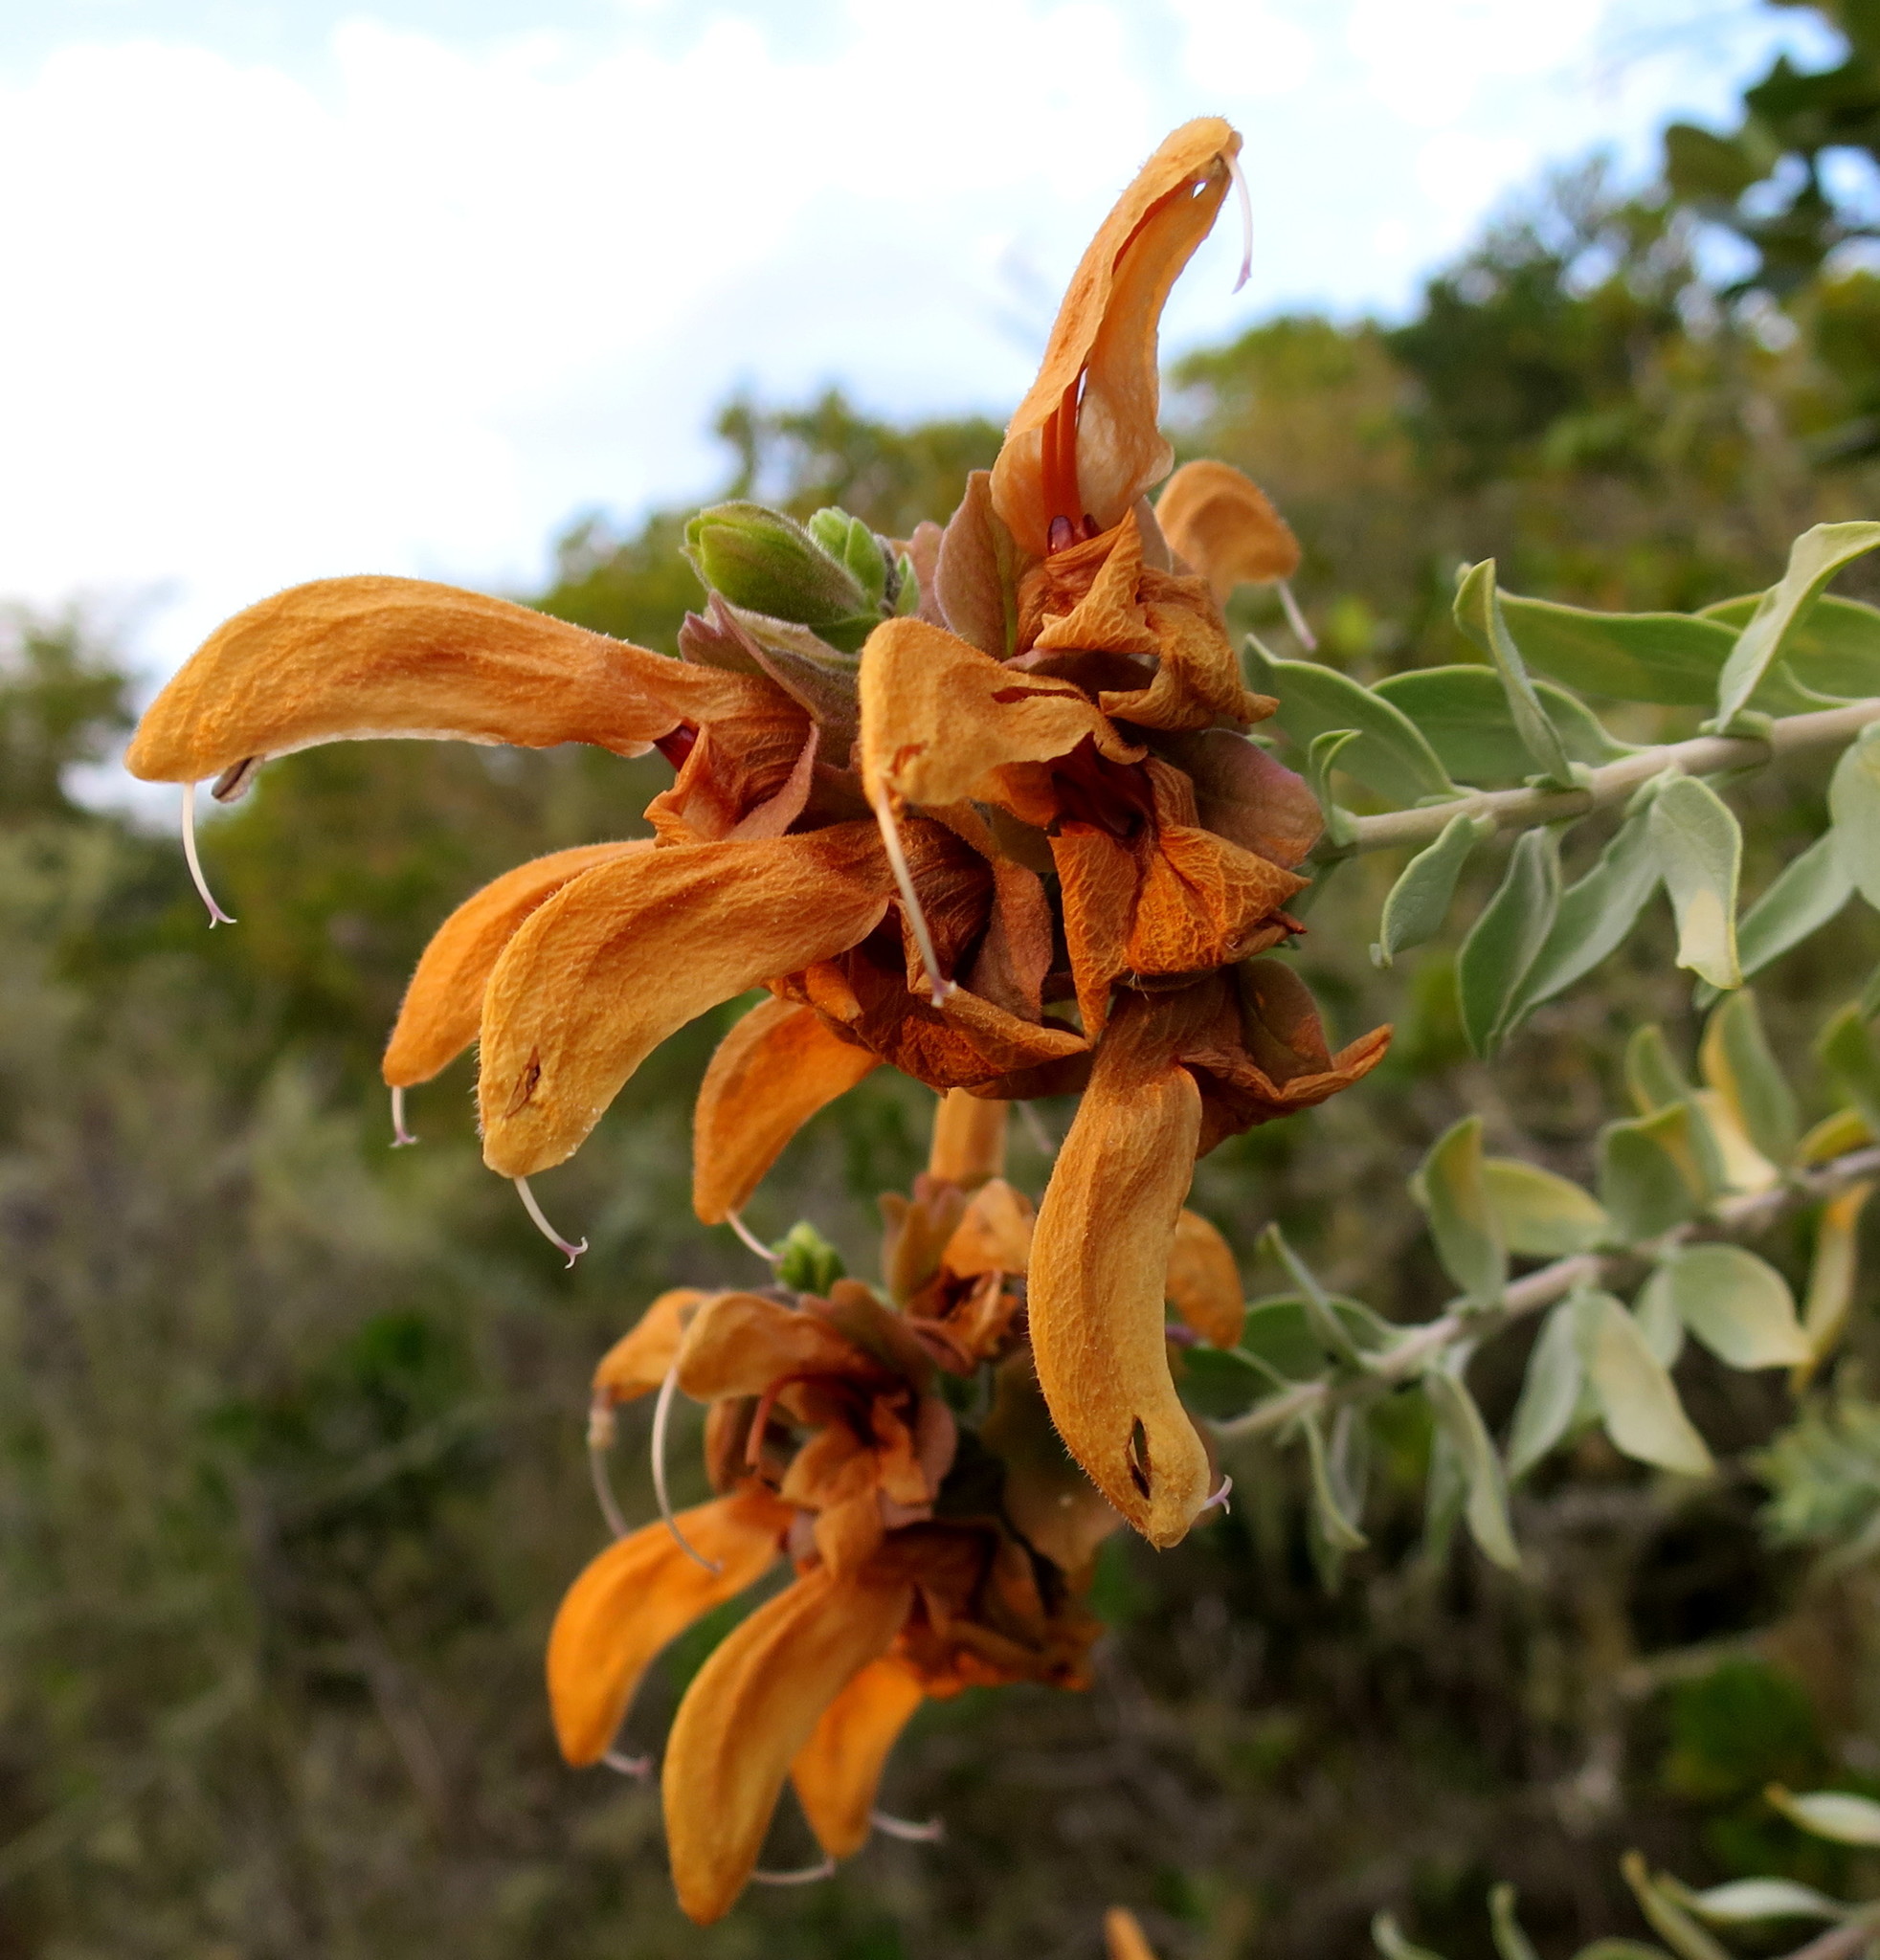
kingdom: Plantae
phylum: Tracheophyta
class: Magnoliopsida
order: Lamiales
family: Lamiaceae
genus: Salvia
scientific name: Salvia aurea
